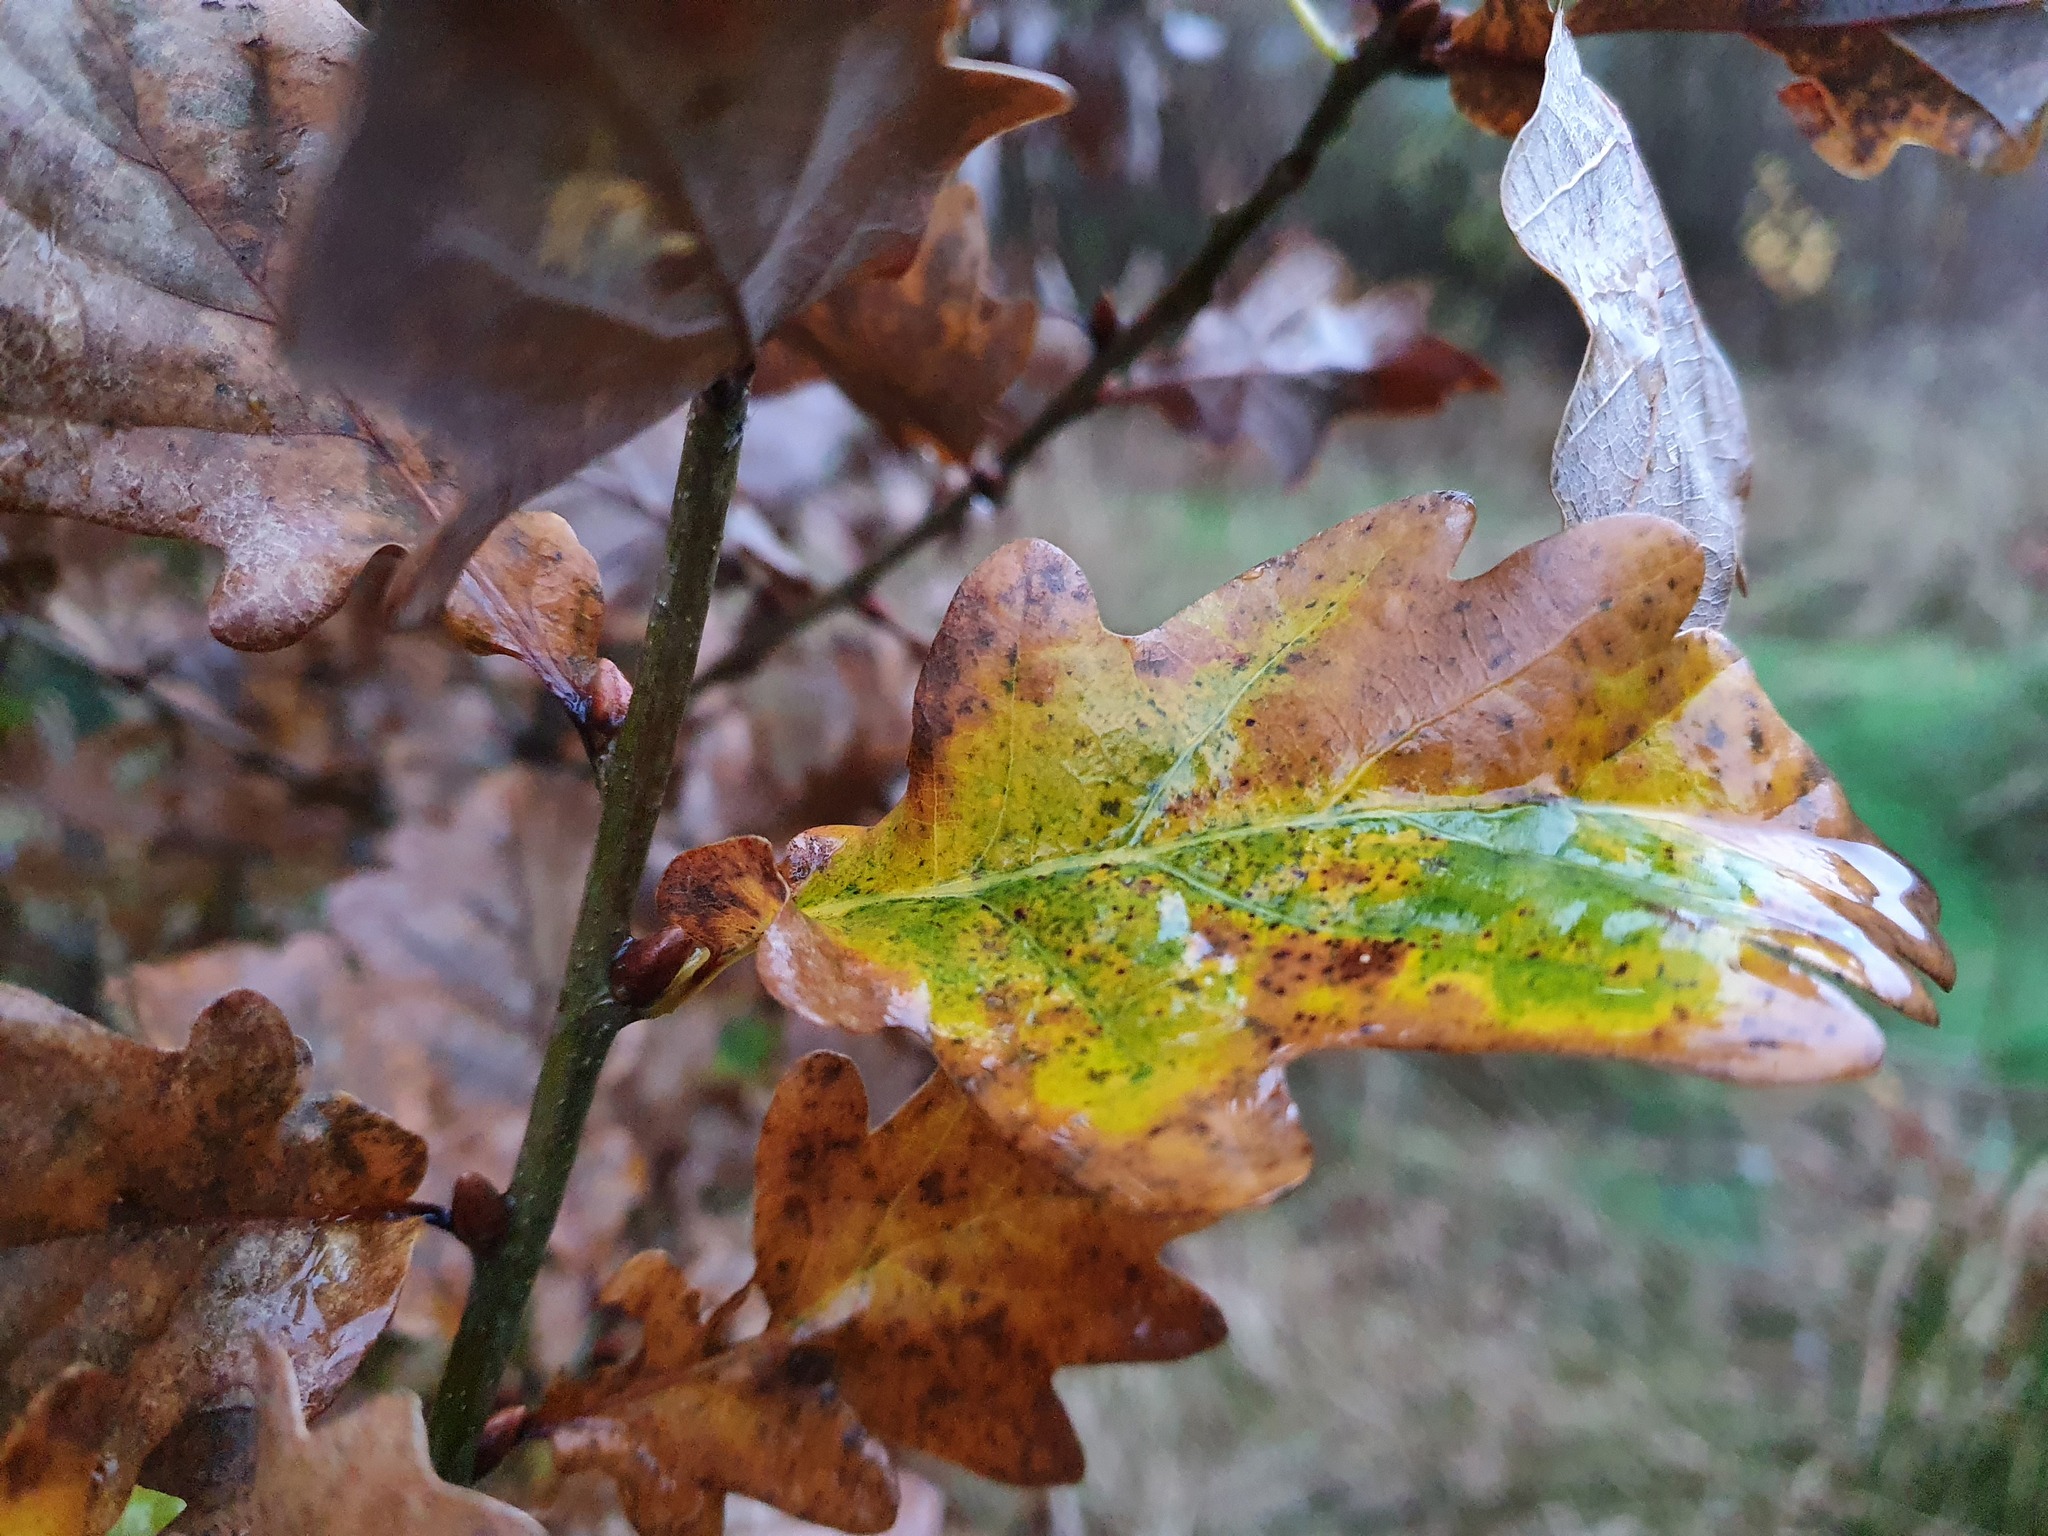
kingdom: Plantae
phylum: Tracheophyta
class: Magnoliopsida
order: Fagales
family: Fagaceae
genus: Quercus
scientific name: Quercus robur
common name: Pedunculate oak
